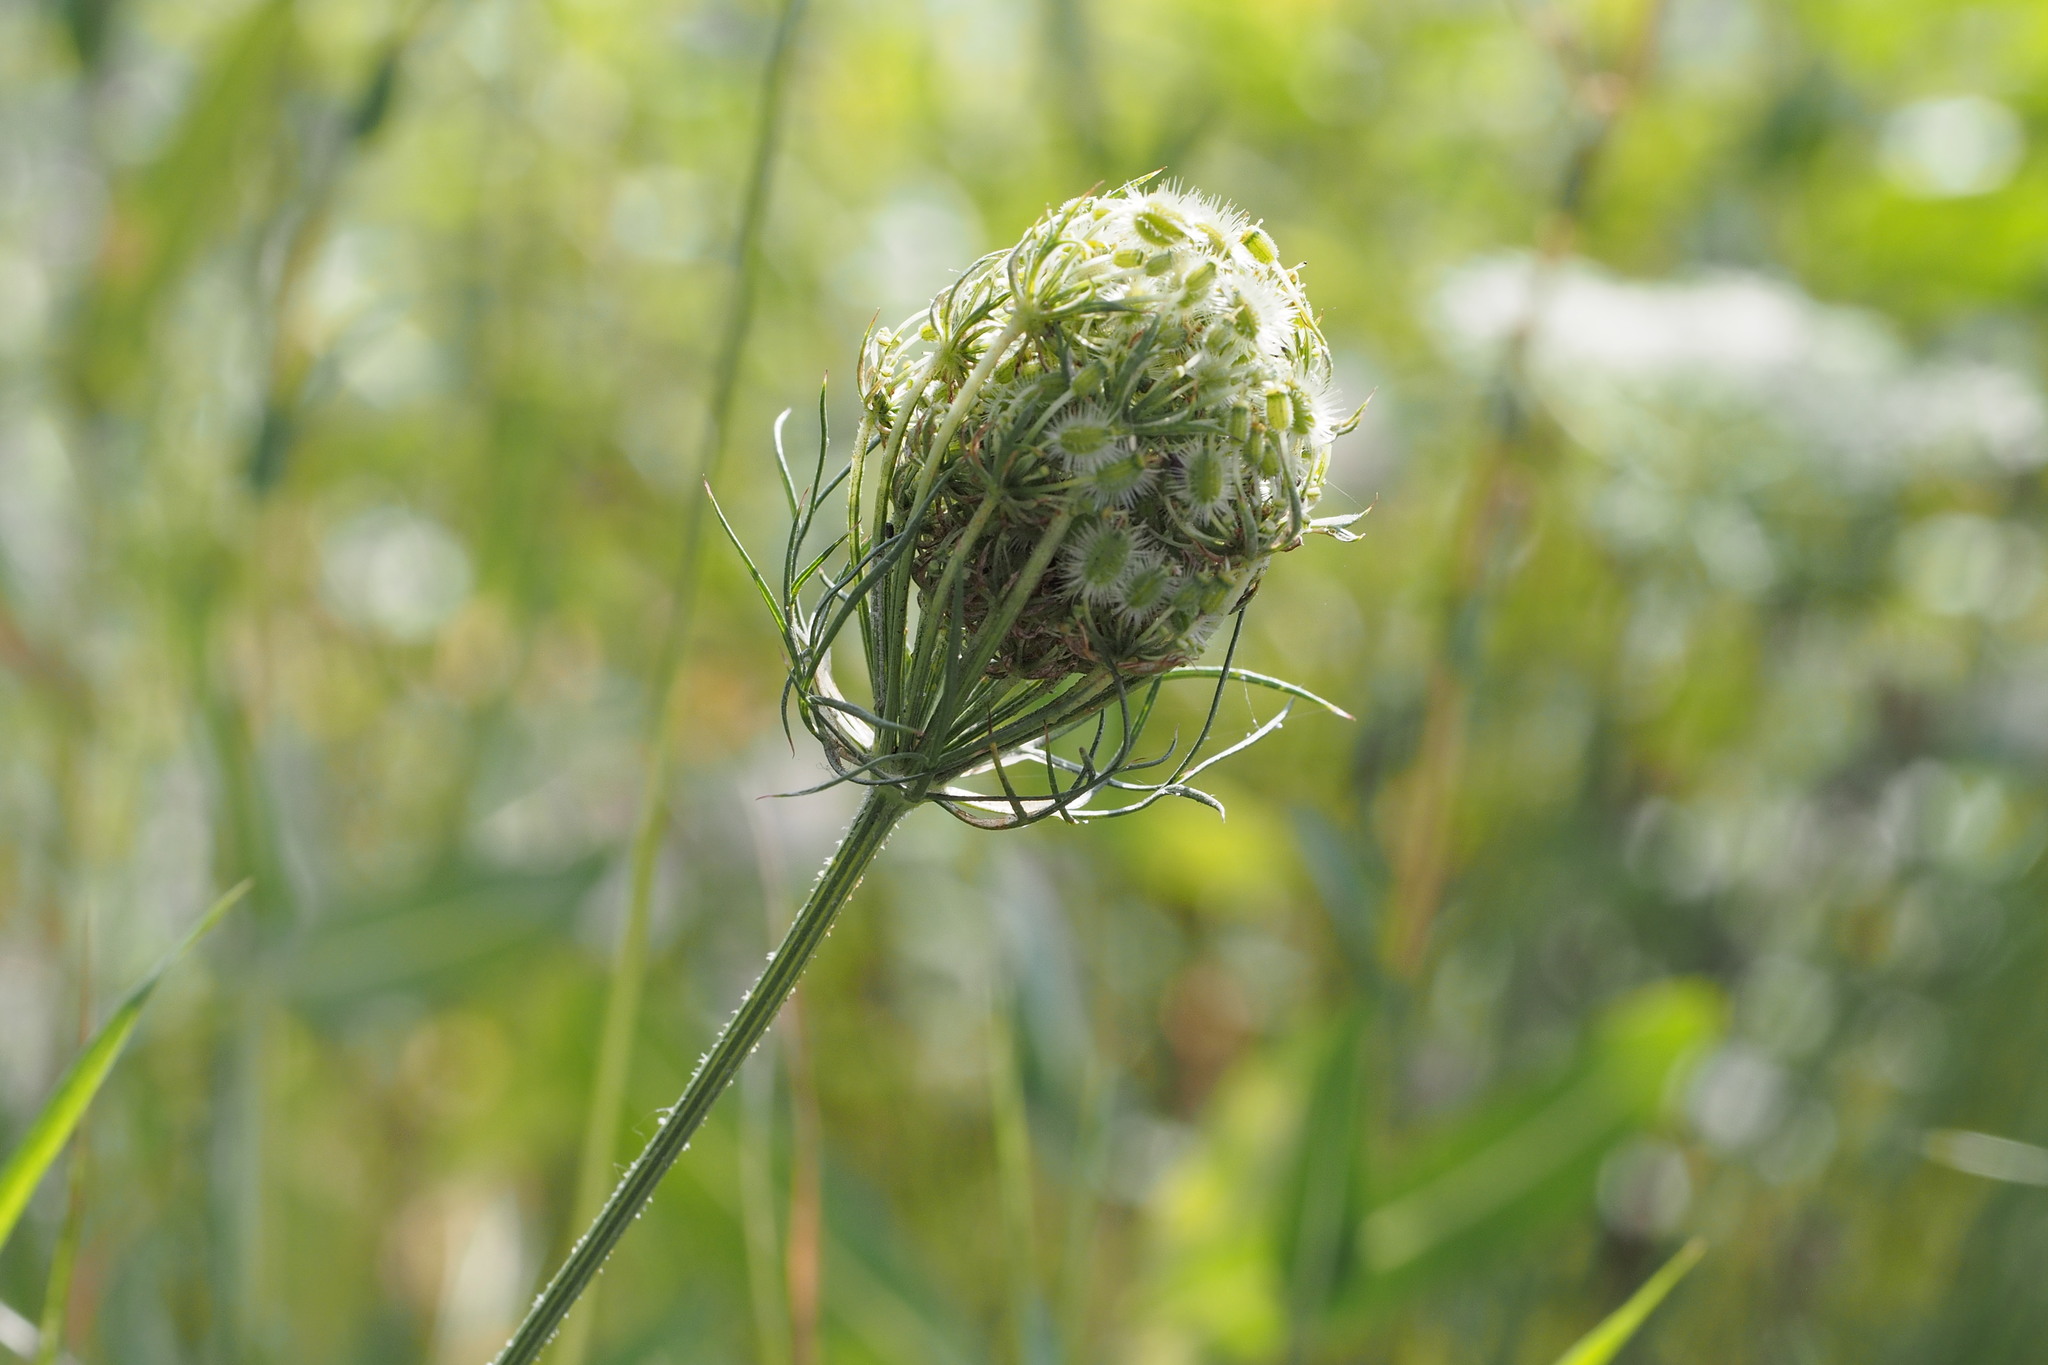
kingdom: Plantae
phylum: Tracheophyta
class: Magnoliopsida
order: Apiales
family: Apiaceae
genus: Daucus
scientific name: Daucus carota
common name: Wild carrot
